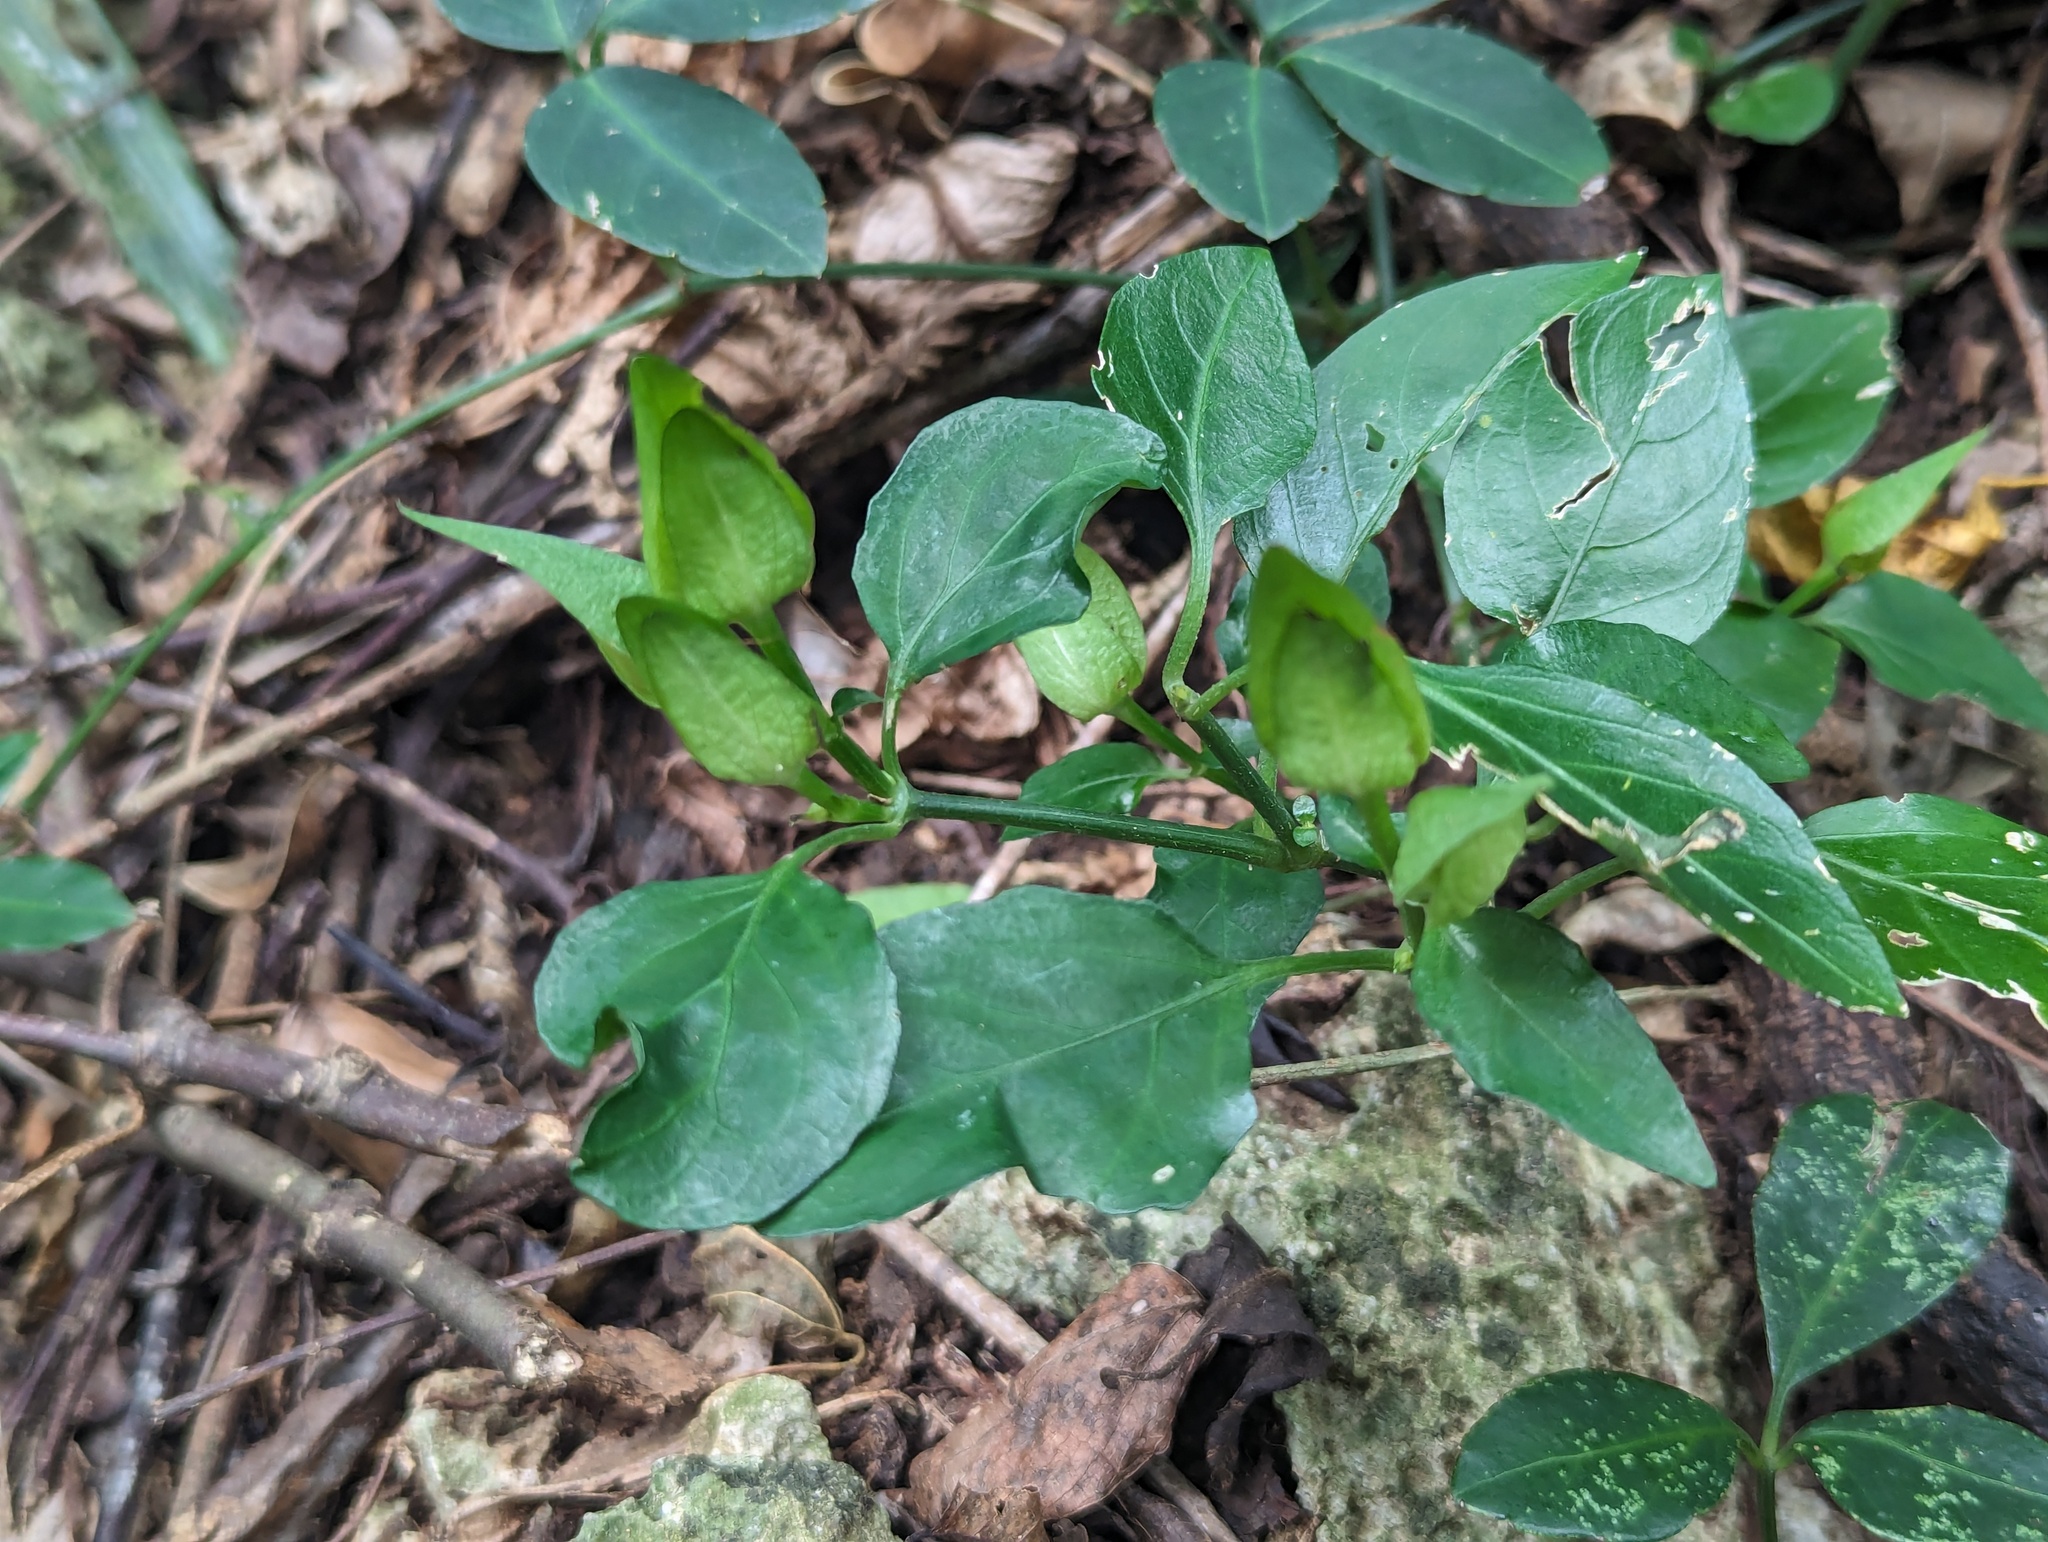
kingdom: Plantae
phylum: Tracheophyta
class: Magnoliopsida
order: Lamiales
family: Acanthaceae
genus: Dicliptera
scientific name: Dicliptera tinctoria
